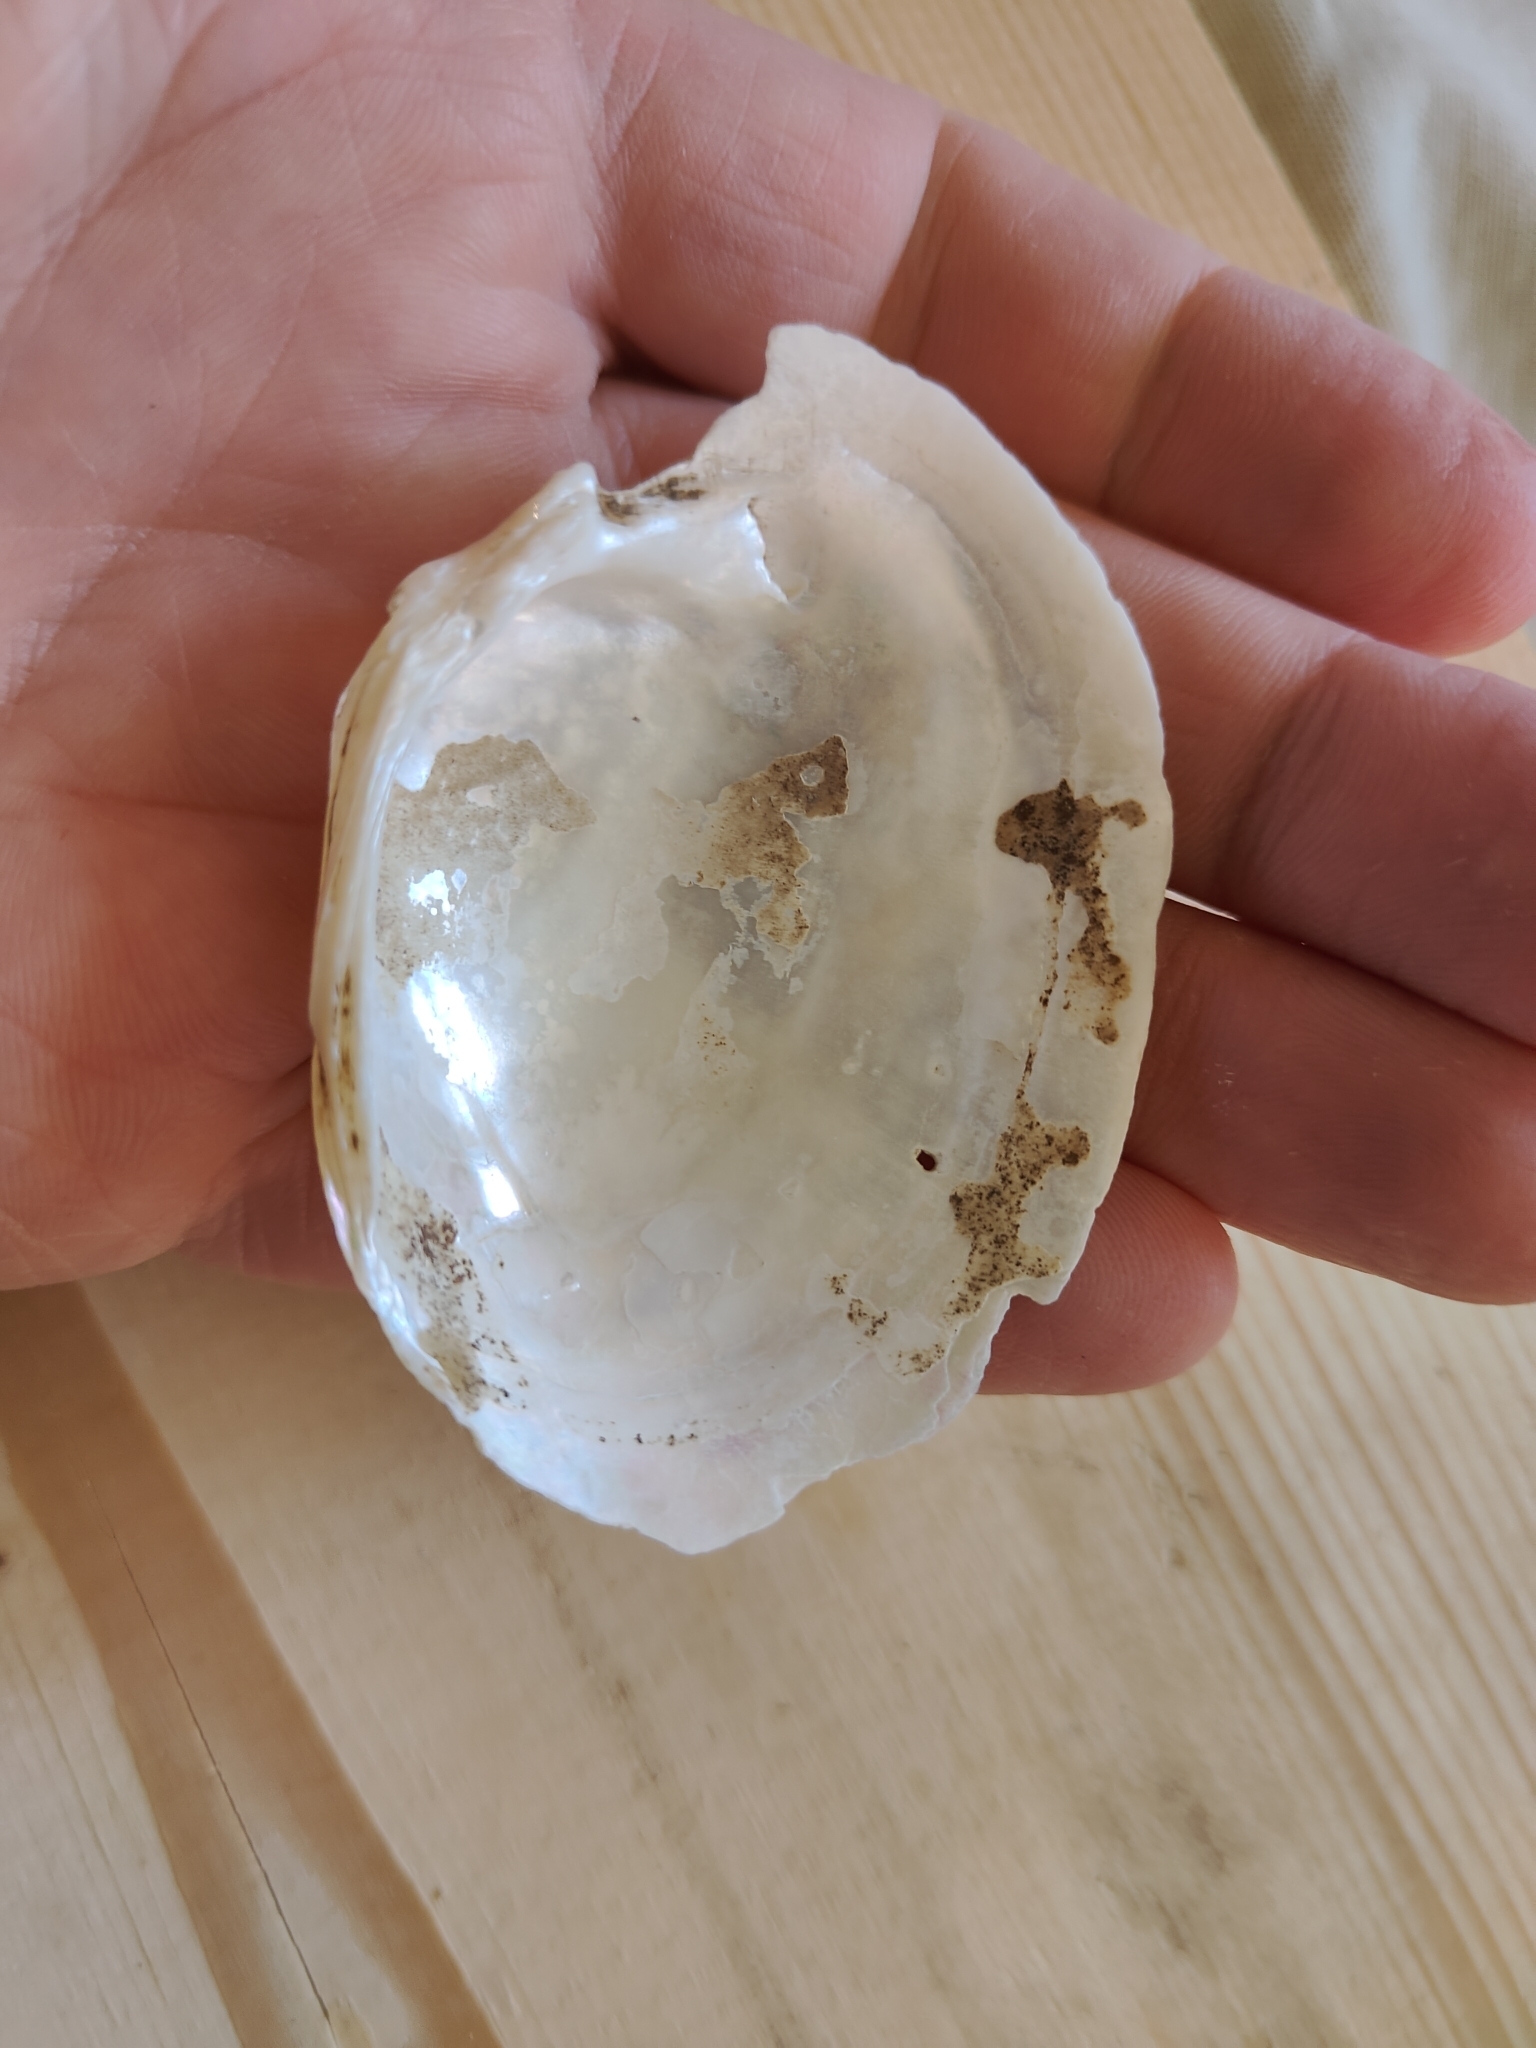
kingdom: Animalia
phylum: Mollusca
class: Bivalvia
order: Unionida
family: Unionidae
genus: Lampsilis
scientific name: Lampsilis cardium
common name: Plain pocketbook
